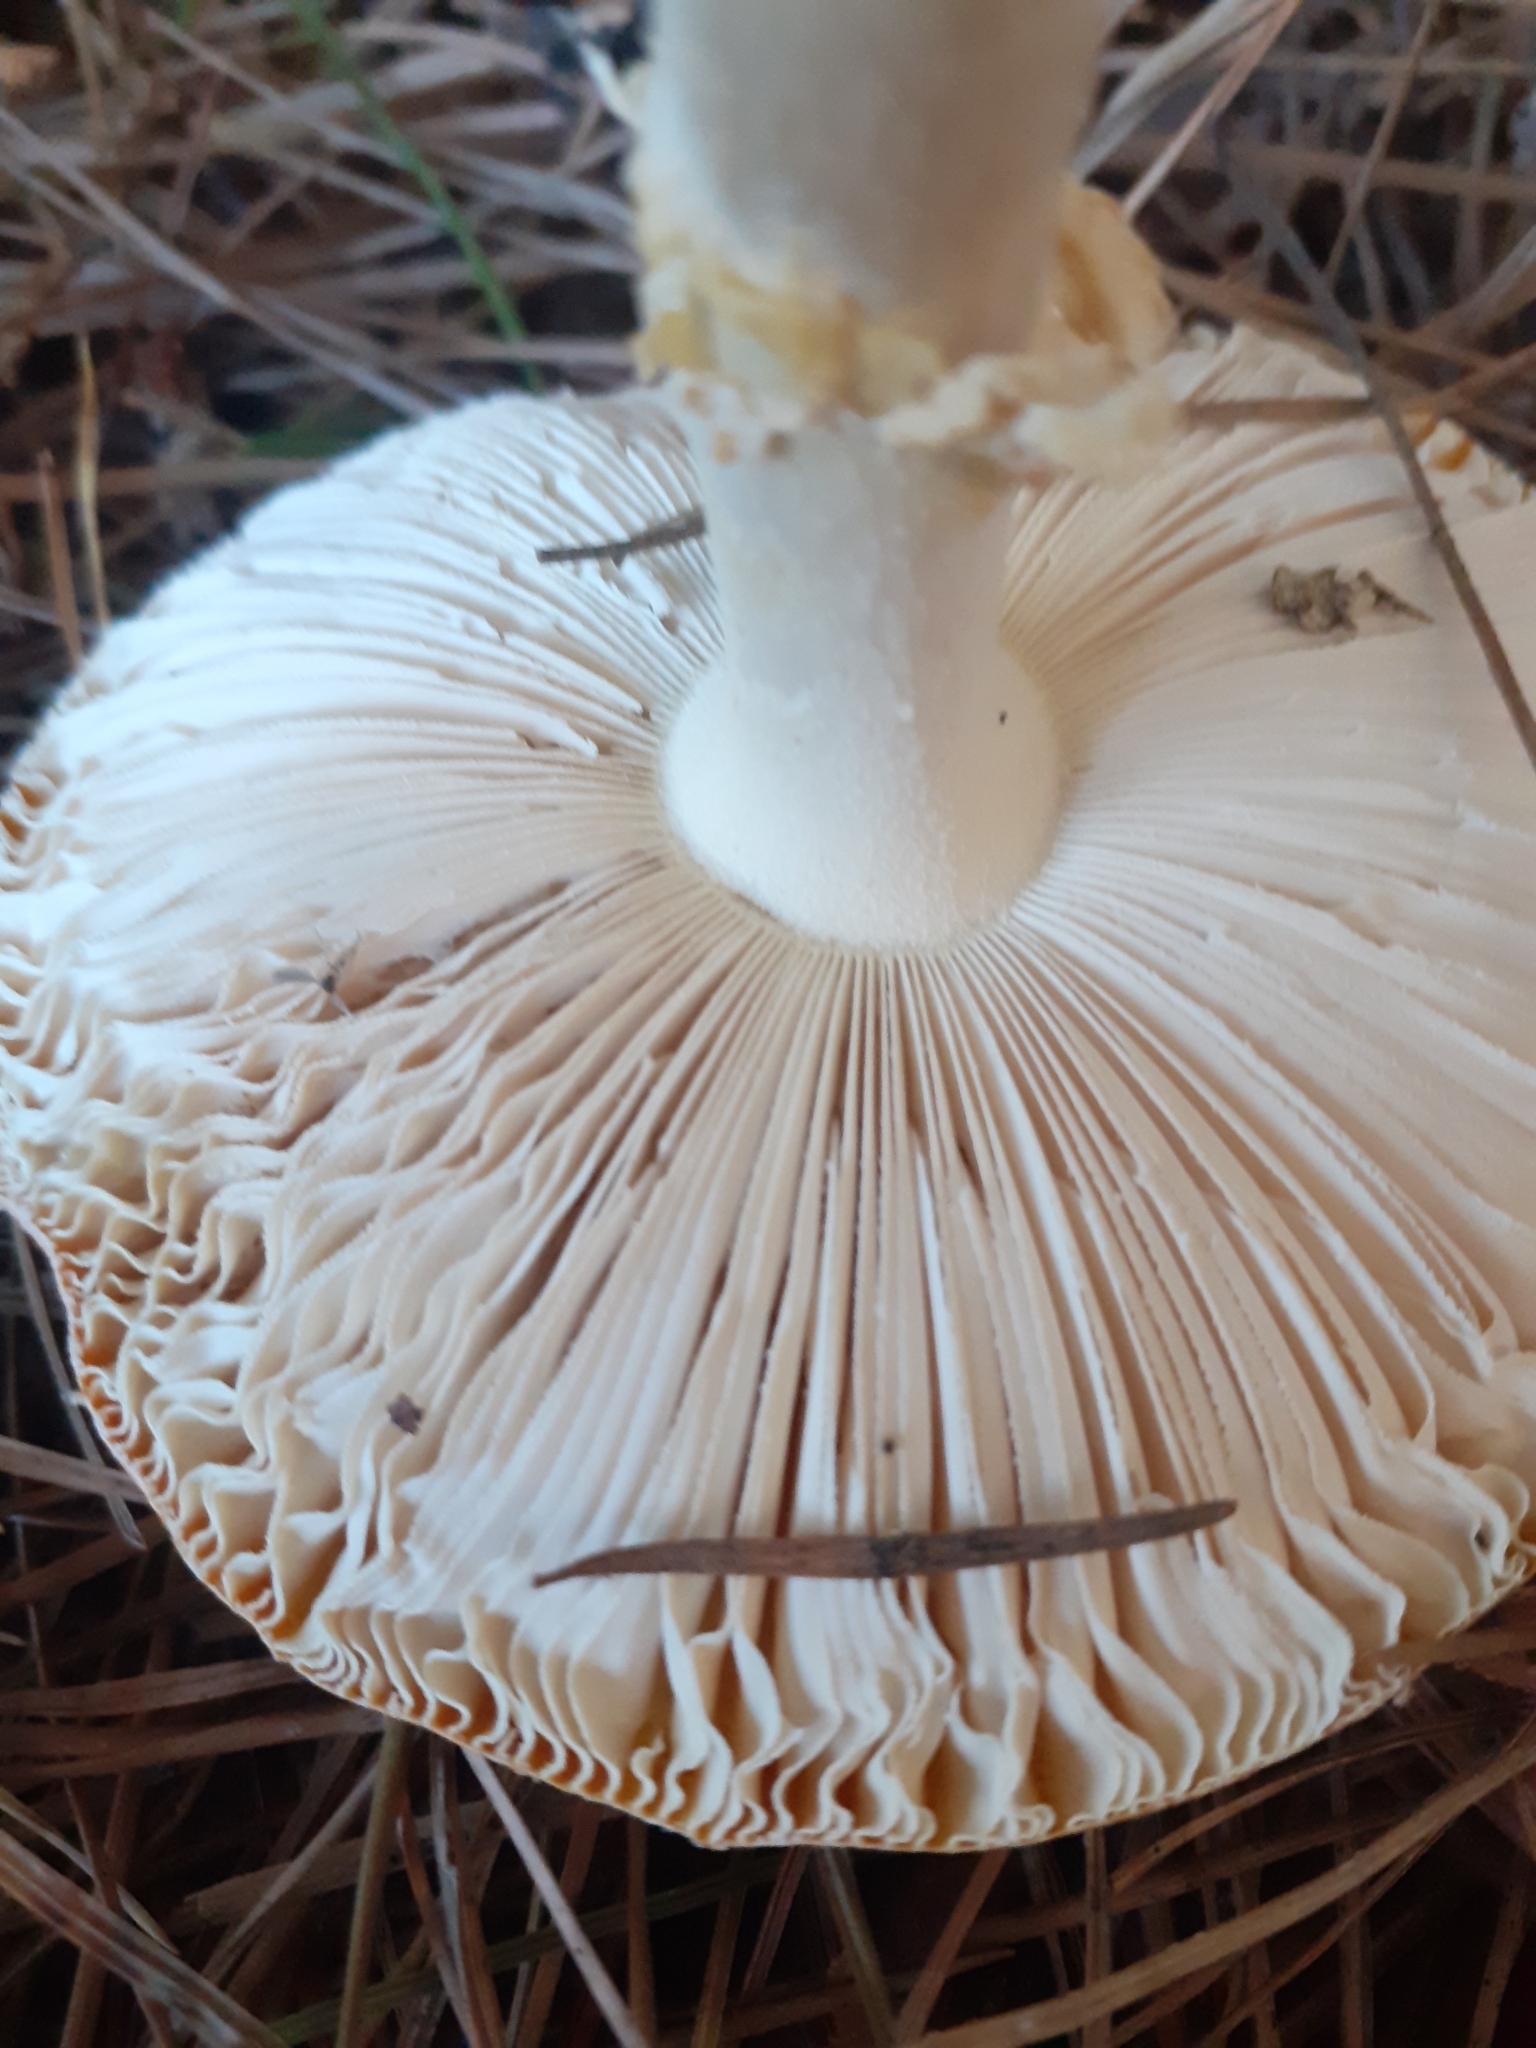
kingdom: Fungi
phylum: Basidiomycota
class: Agaricomycetes
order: Agaricales
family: Amanitaceae
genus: Amanita
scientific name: Amanita muscaria
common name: Fly agaric
